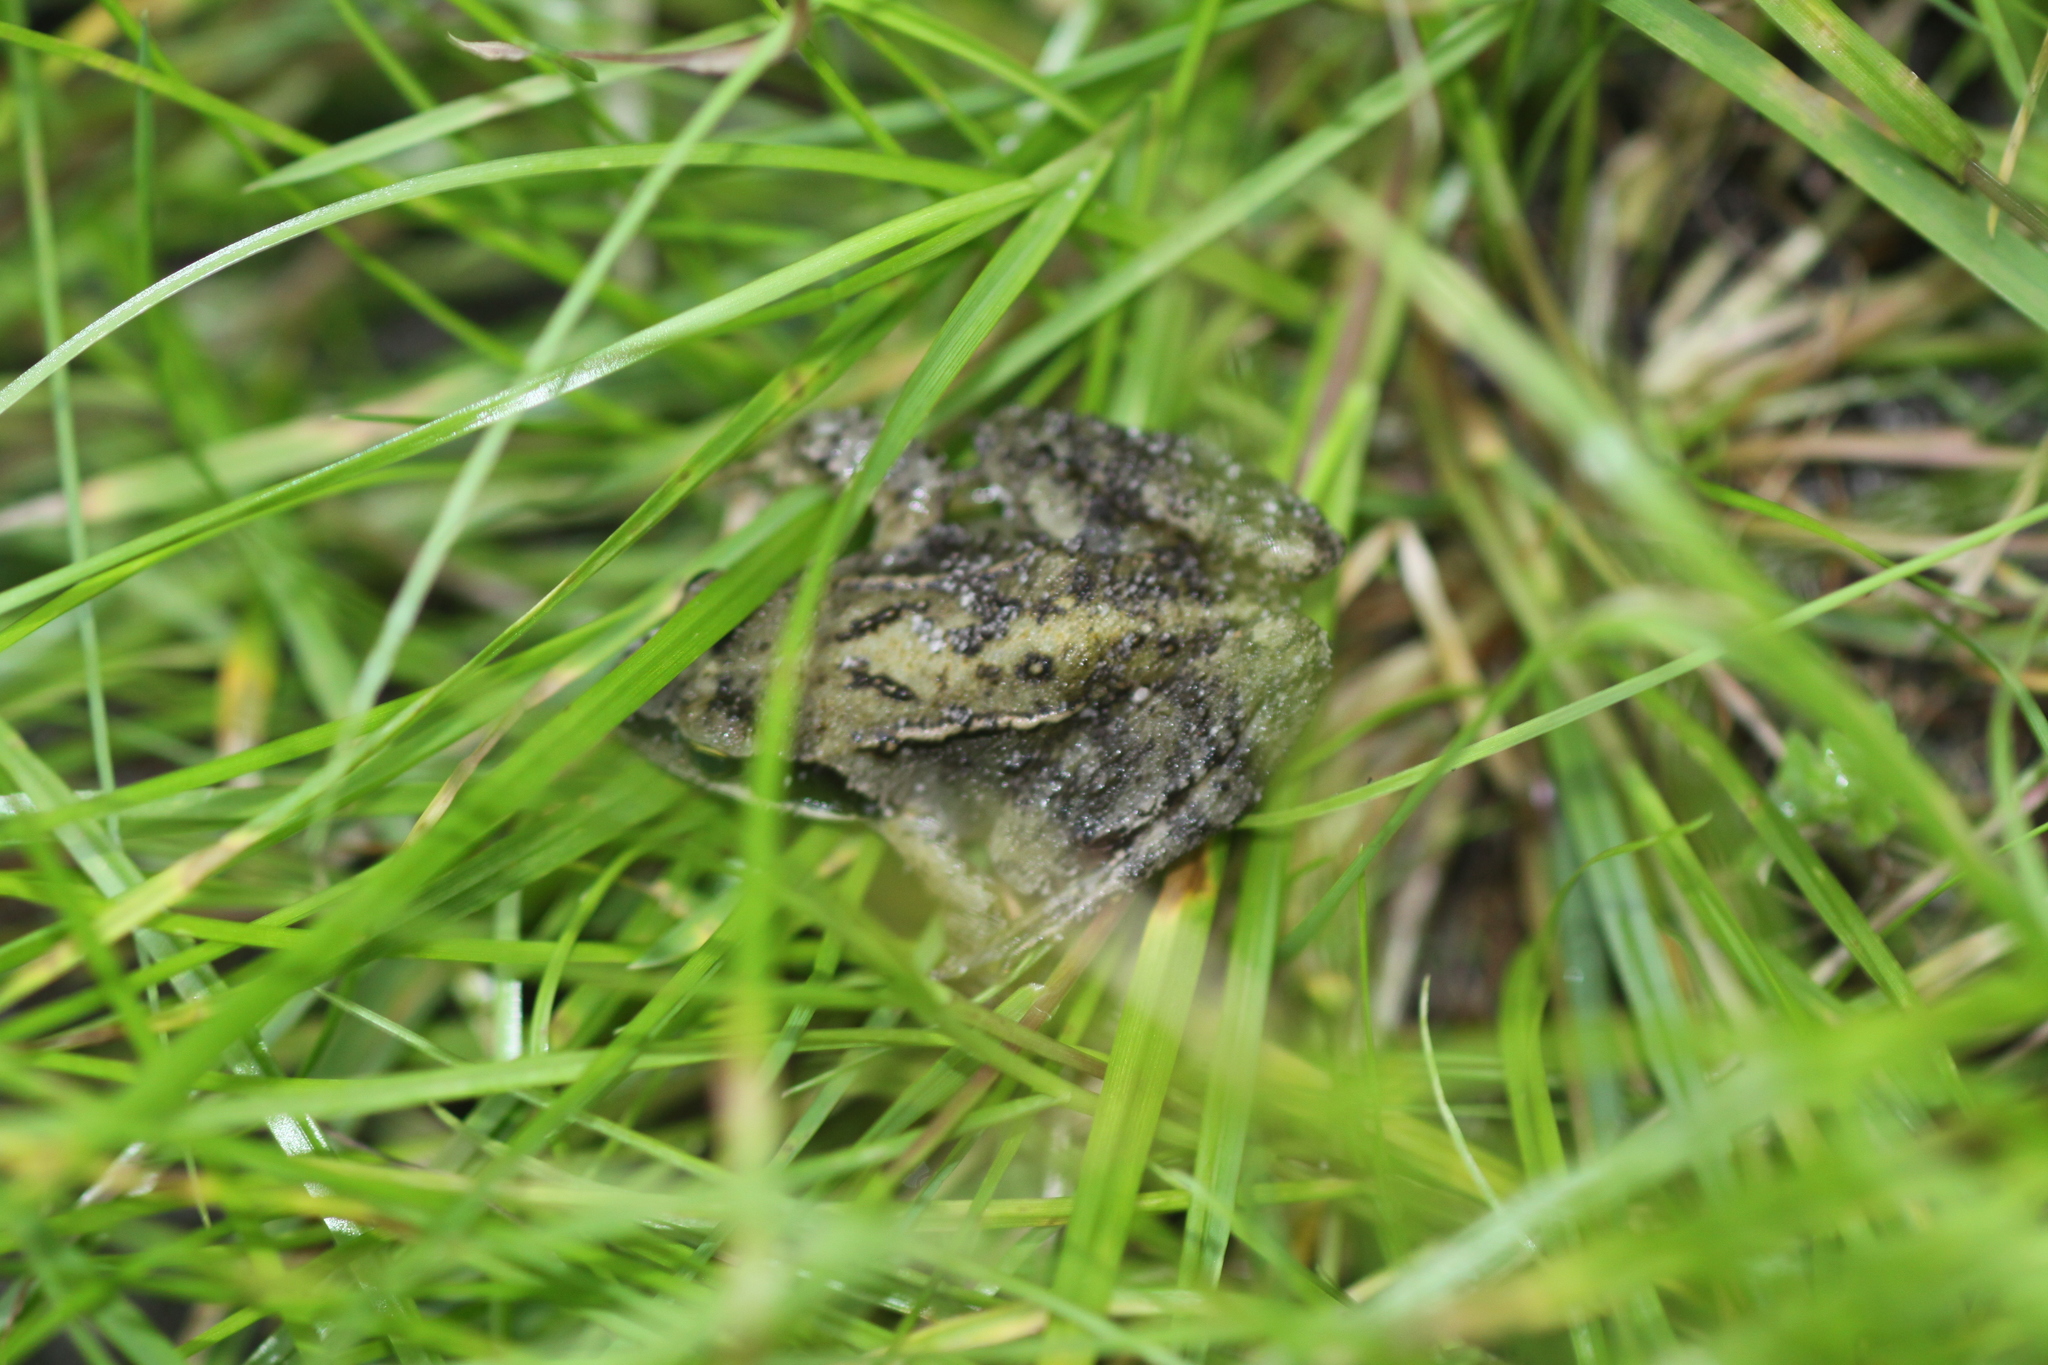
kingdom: Animalia
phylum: Chordata
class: Amphibia
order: Anura
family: Ranidae
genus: Rana
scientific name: Rana temporaria
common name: Common frog
